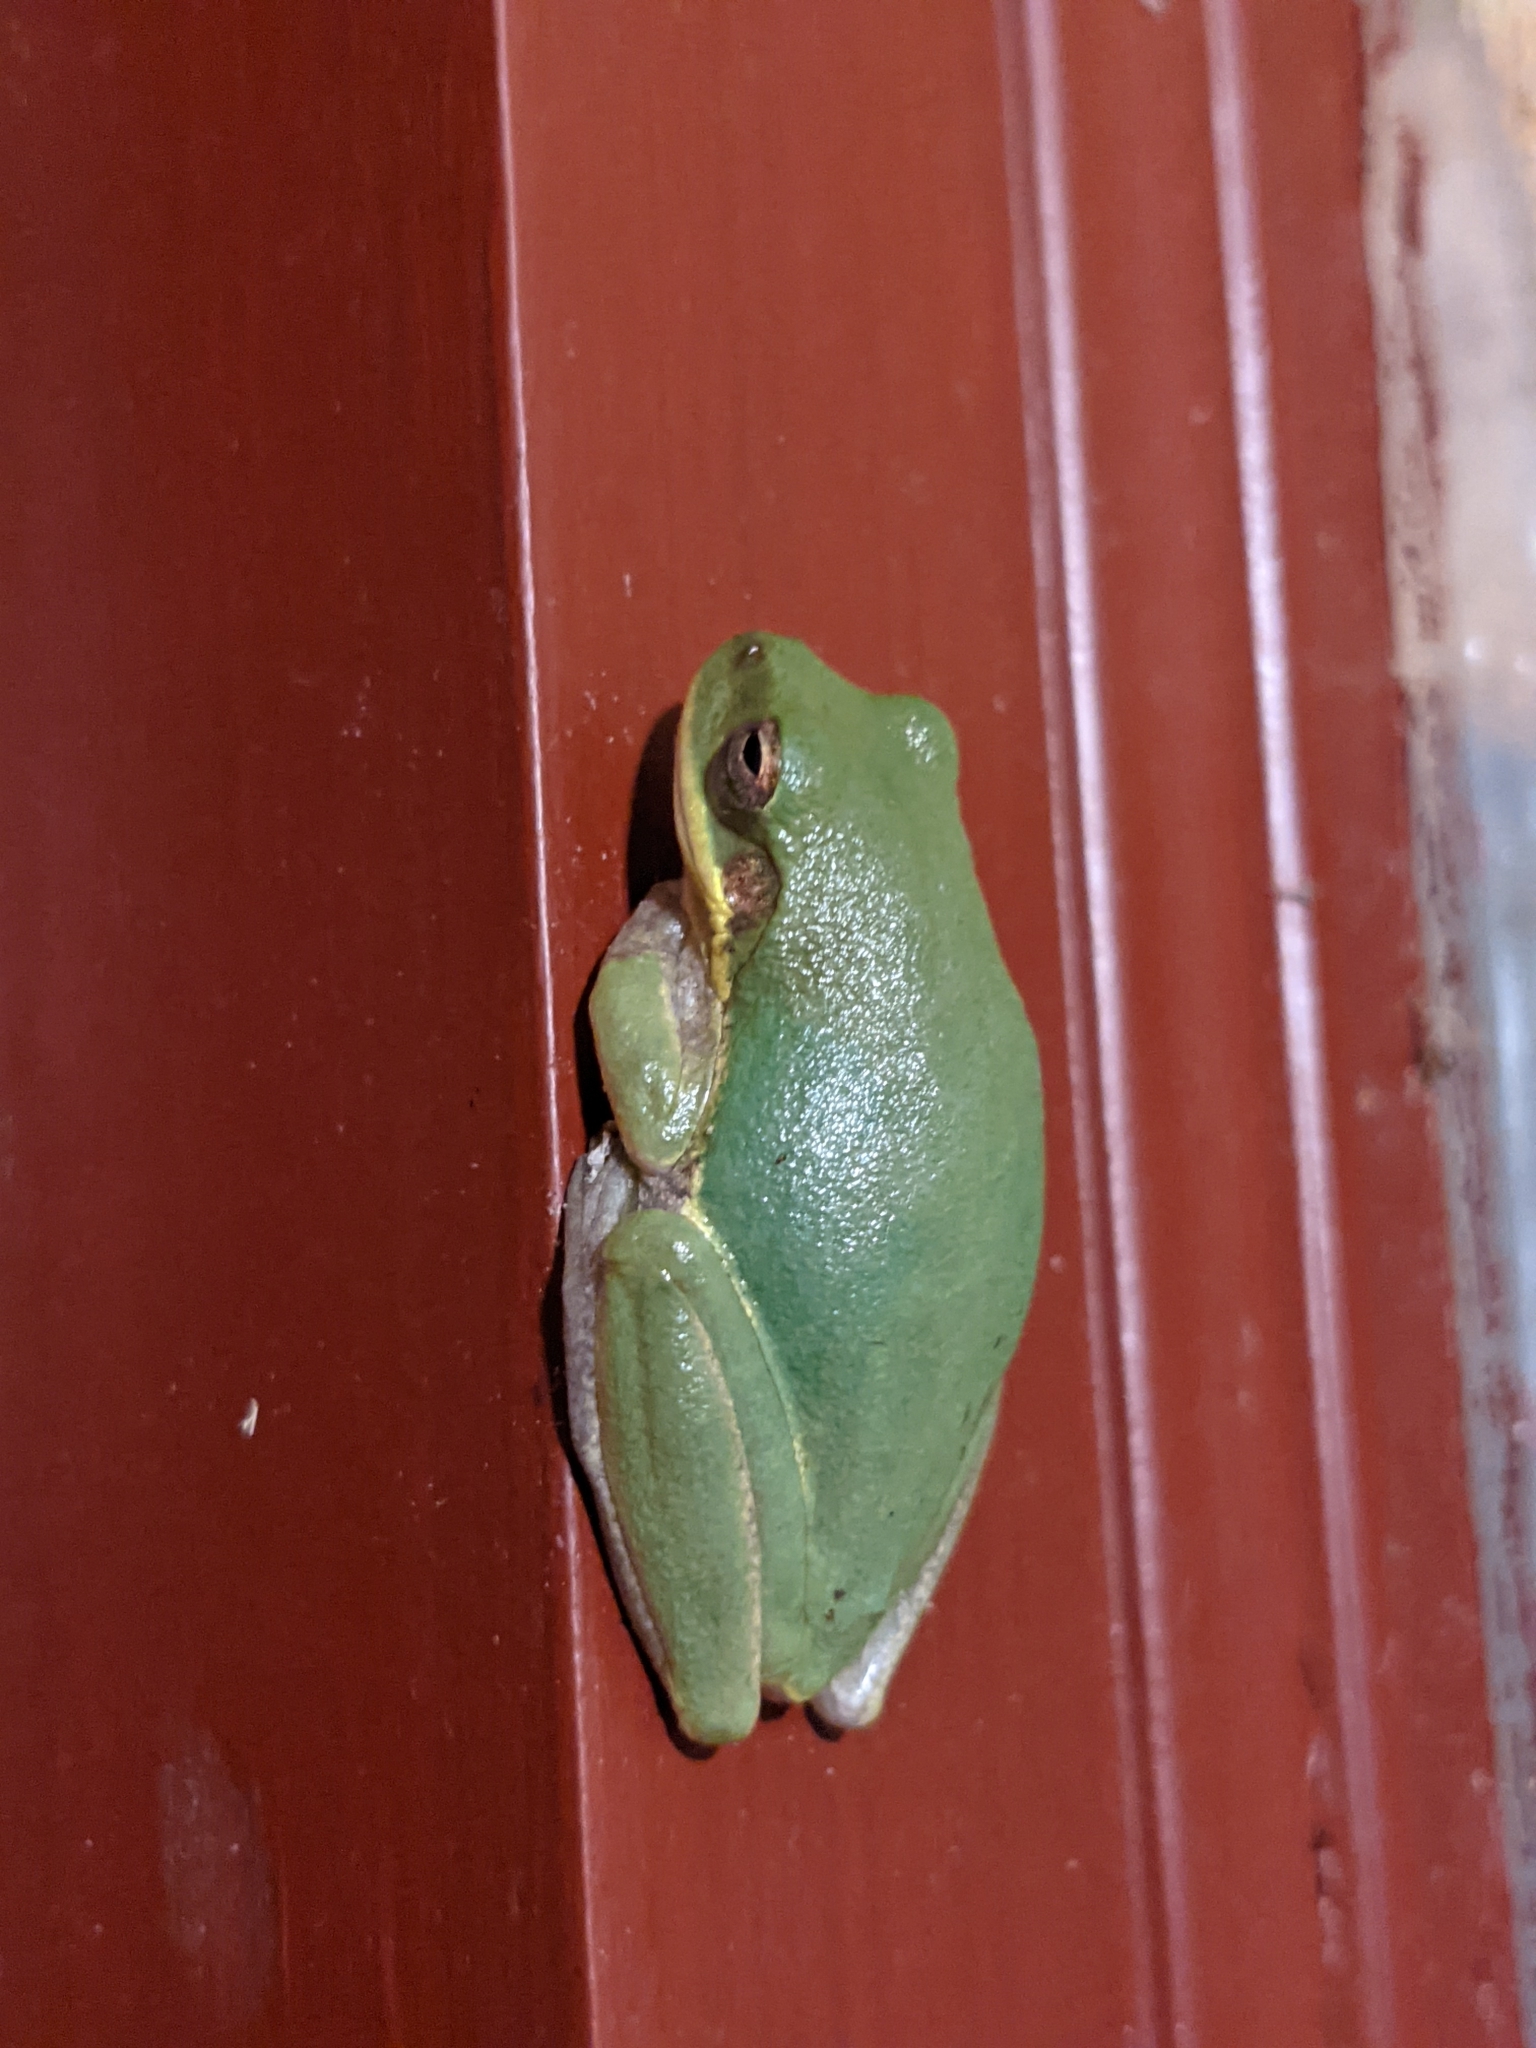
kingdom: Animalia
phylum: Chordata
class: Amphibia
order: Anura
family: Hylidae
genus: Dryophytes
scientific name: Dryophytes squirellus
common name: Squirrel treefrog
